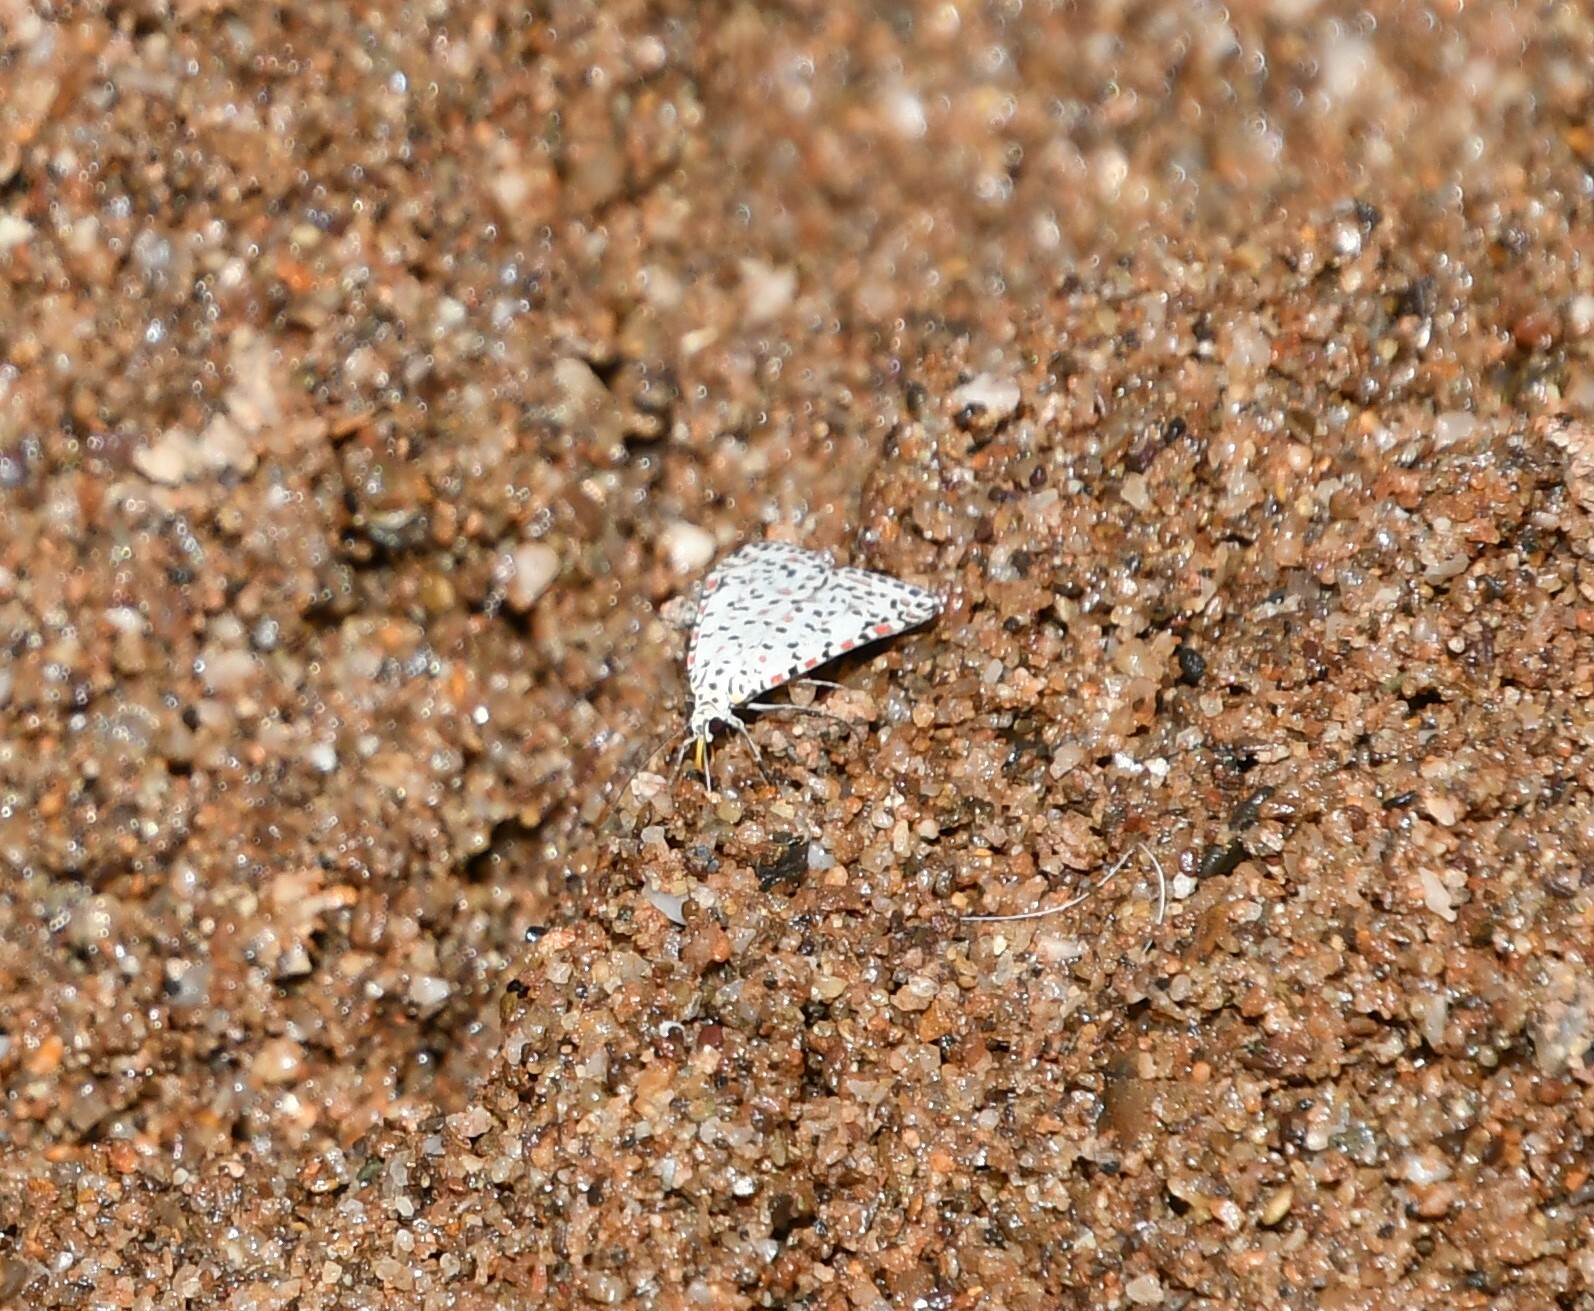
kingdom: Animalia
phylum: Arthropoda
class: Insecta
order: Lepidoptera
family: Erebidae
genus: Utetheisa
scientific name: Utetheisa pulchelloides
